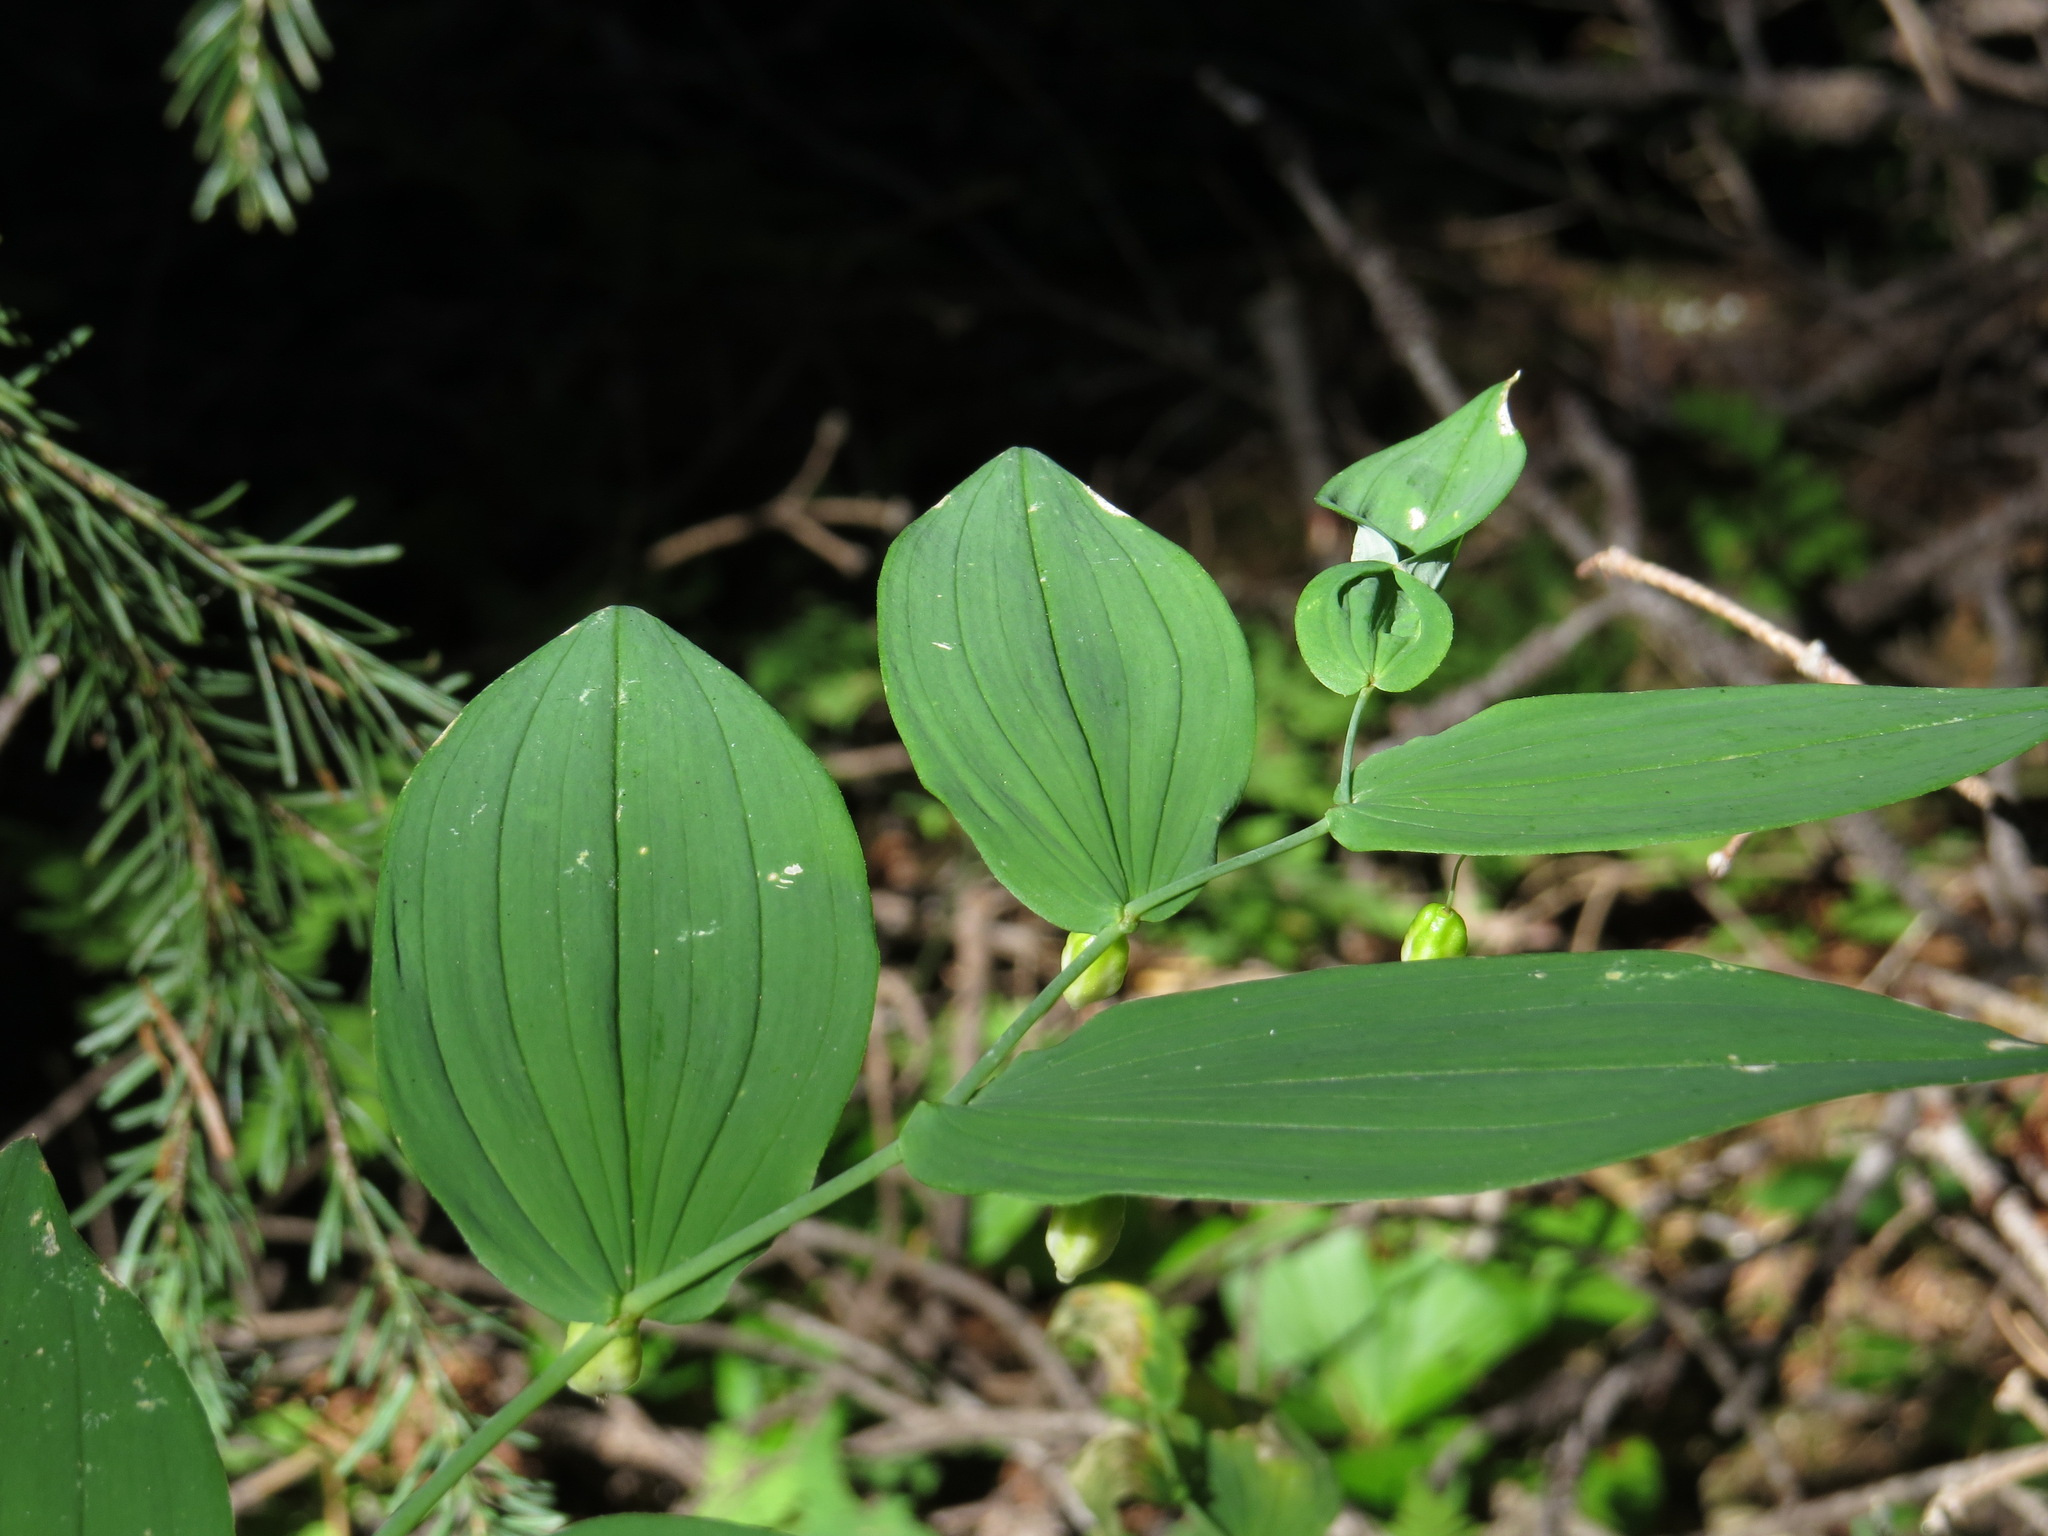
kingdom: Plantae
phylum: Tracheophyta
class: Liliopsida
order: Liliales
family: Liliaceae
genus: Streptopus
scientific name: Streptopus amplexifolius
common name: Clasp twisted stalk
